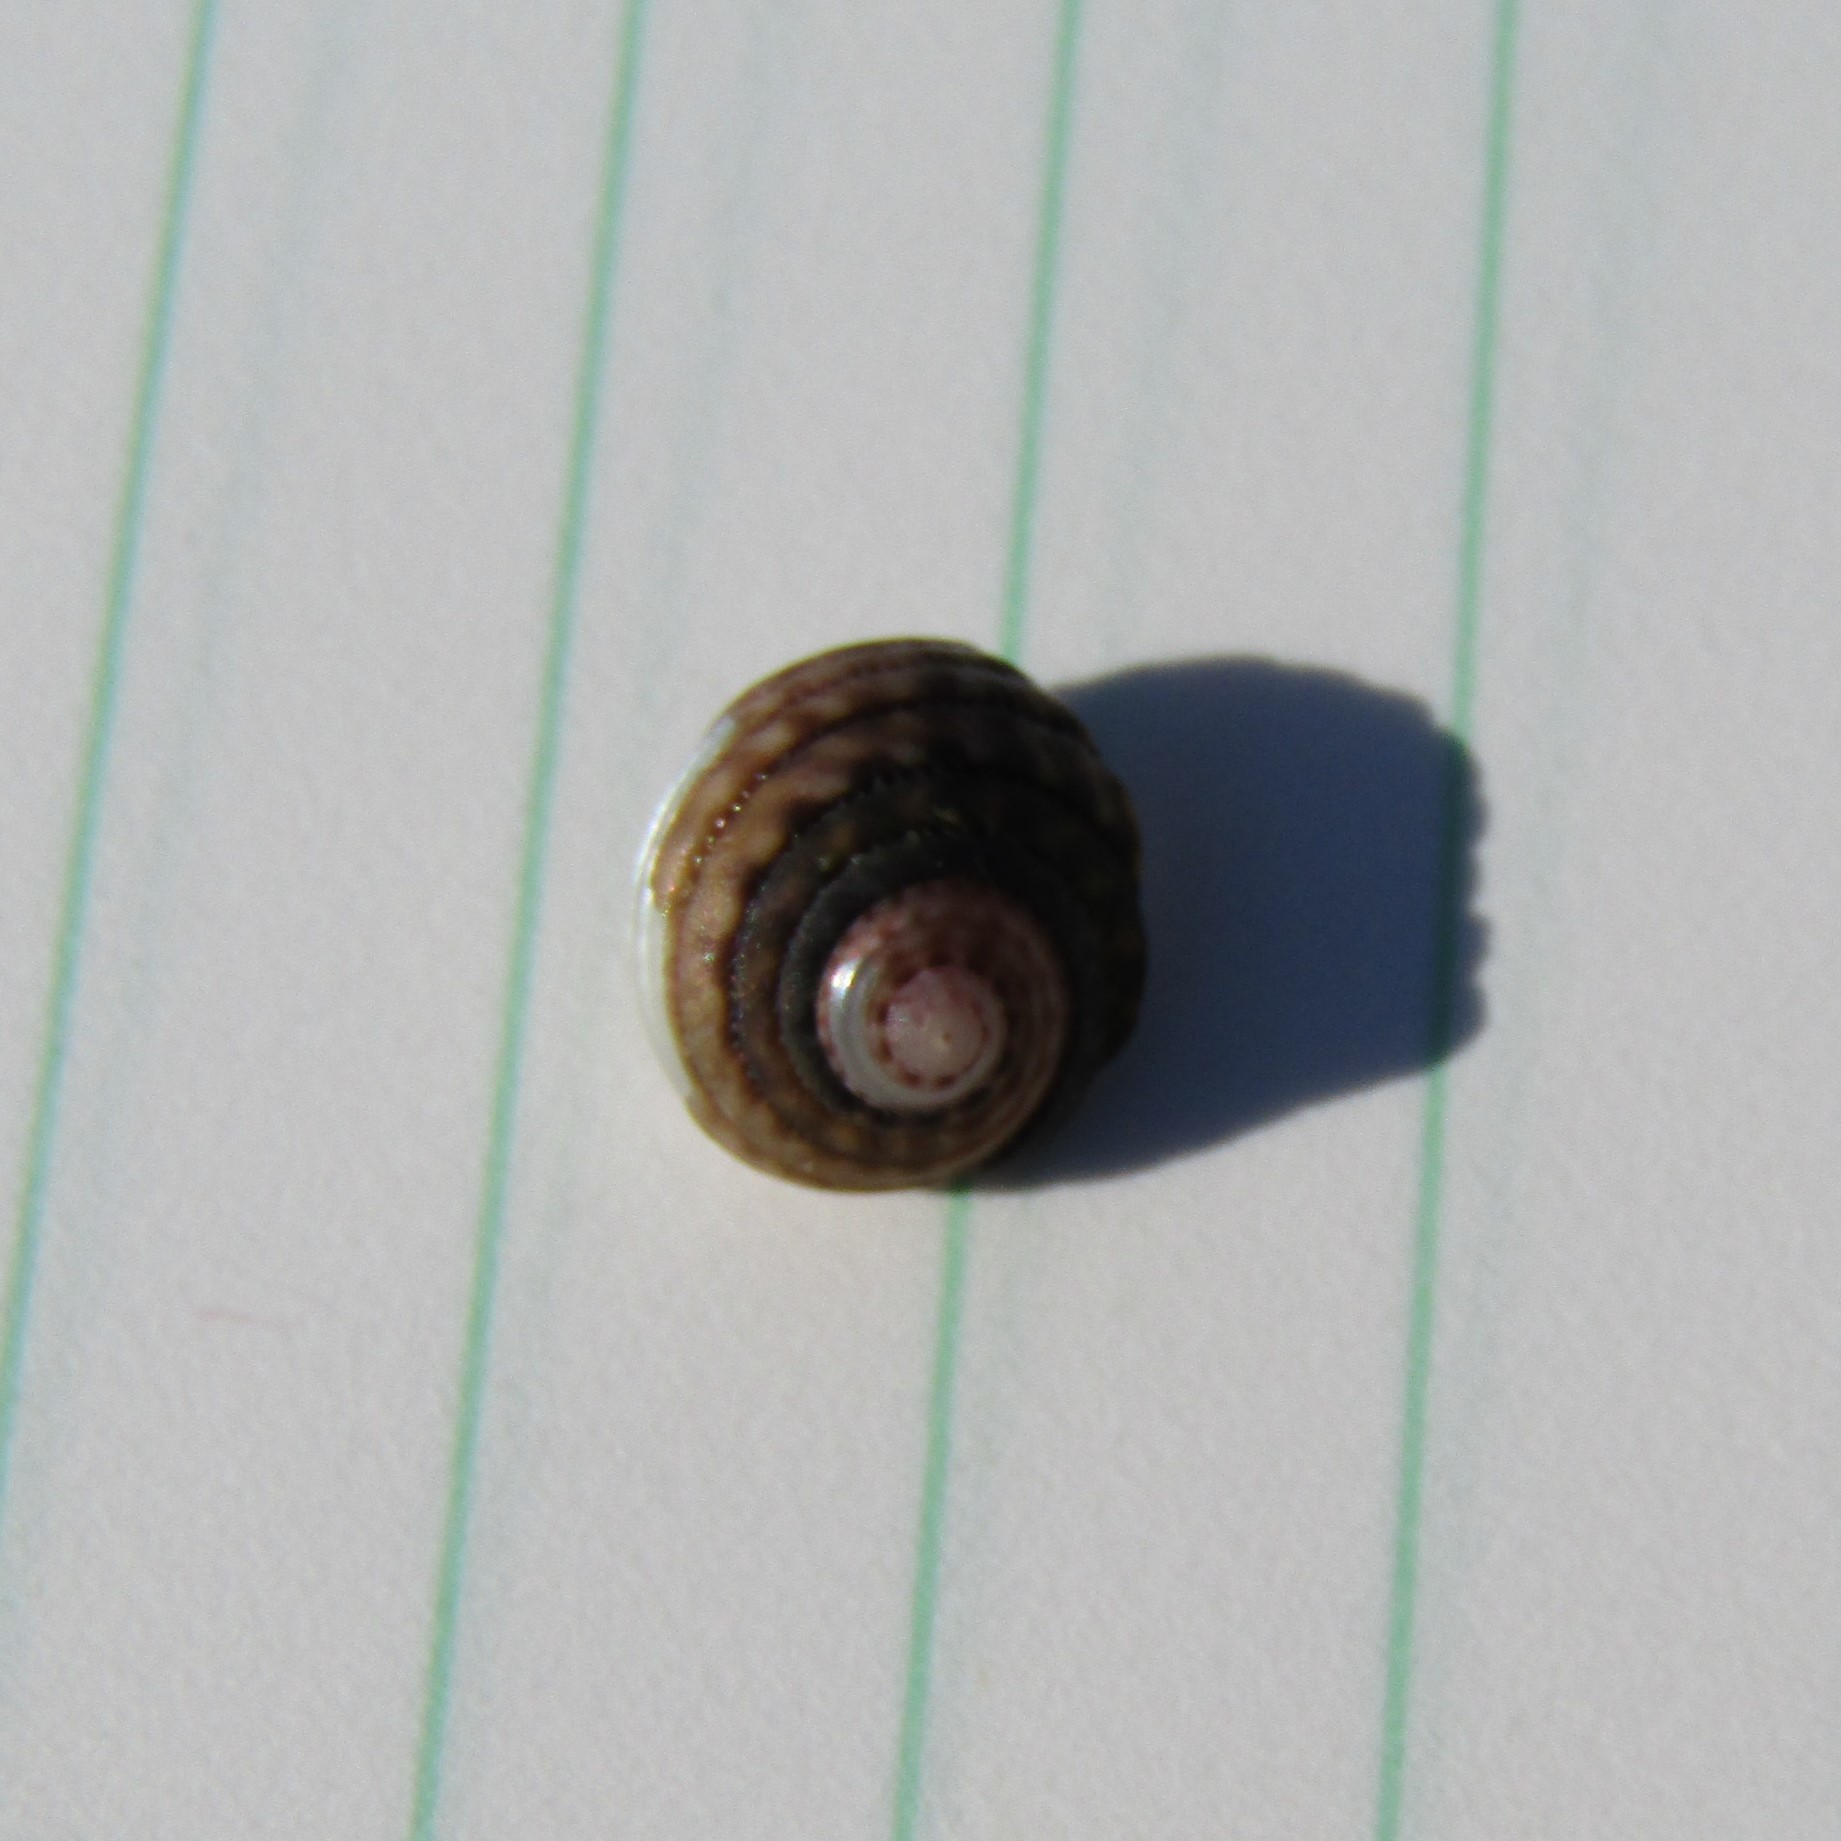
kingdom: Animalia
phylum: Mollusca
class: Gastropoda
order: Trochida
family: Trochidae
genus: Diloma
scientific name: Diloma aethiops
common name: Scorched monodont
